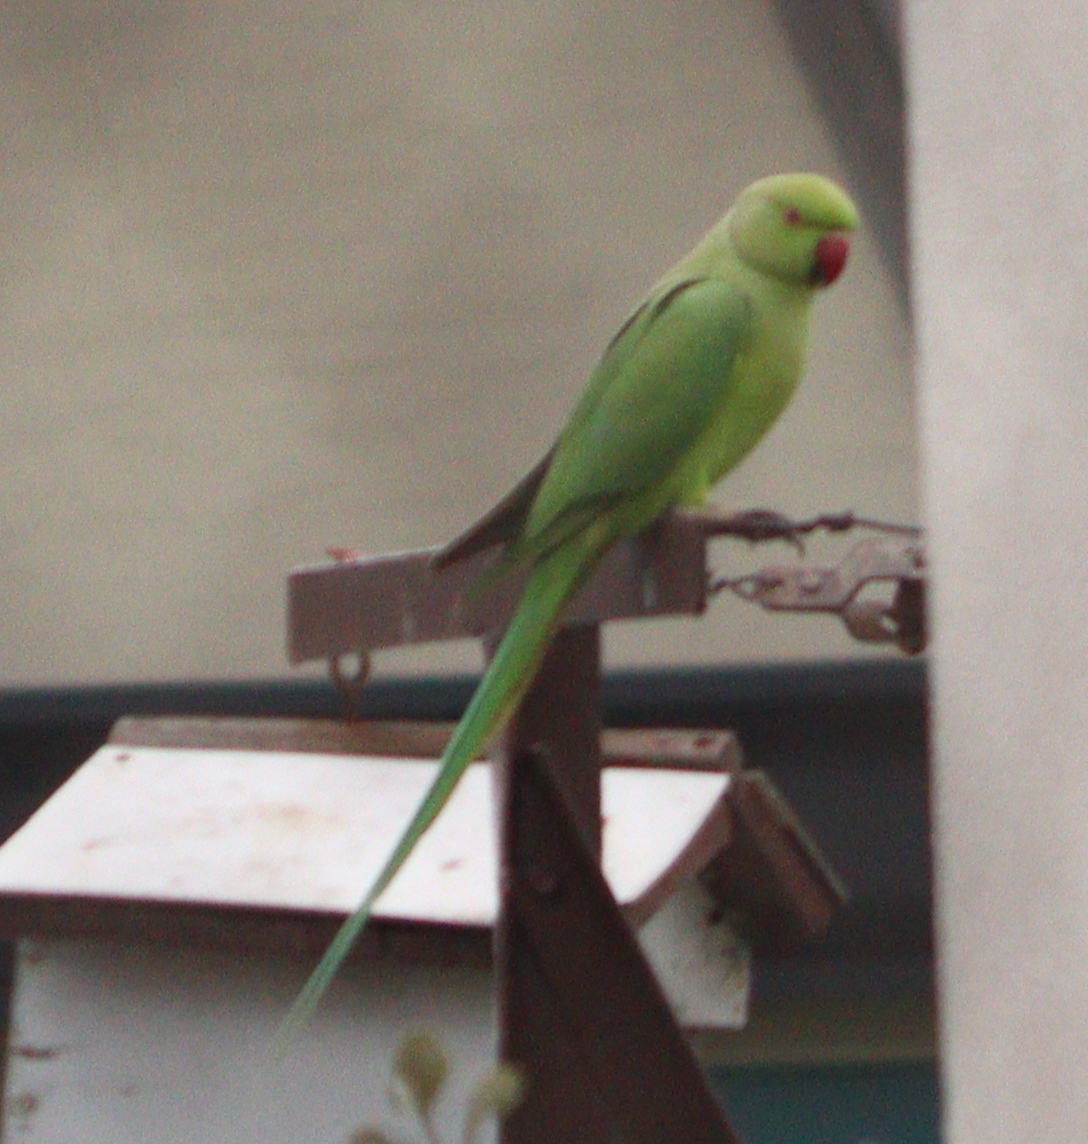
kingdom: Animalia
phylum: Chordata
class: Aves
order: Psittaciformes
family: Psittacidae
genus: Psittacula
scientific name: Psittacula krameri
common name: Rose-ringed parakeet
